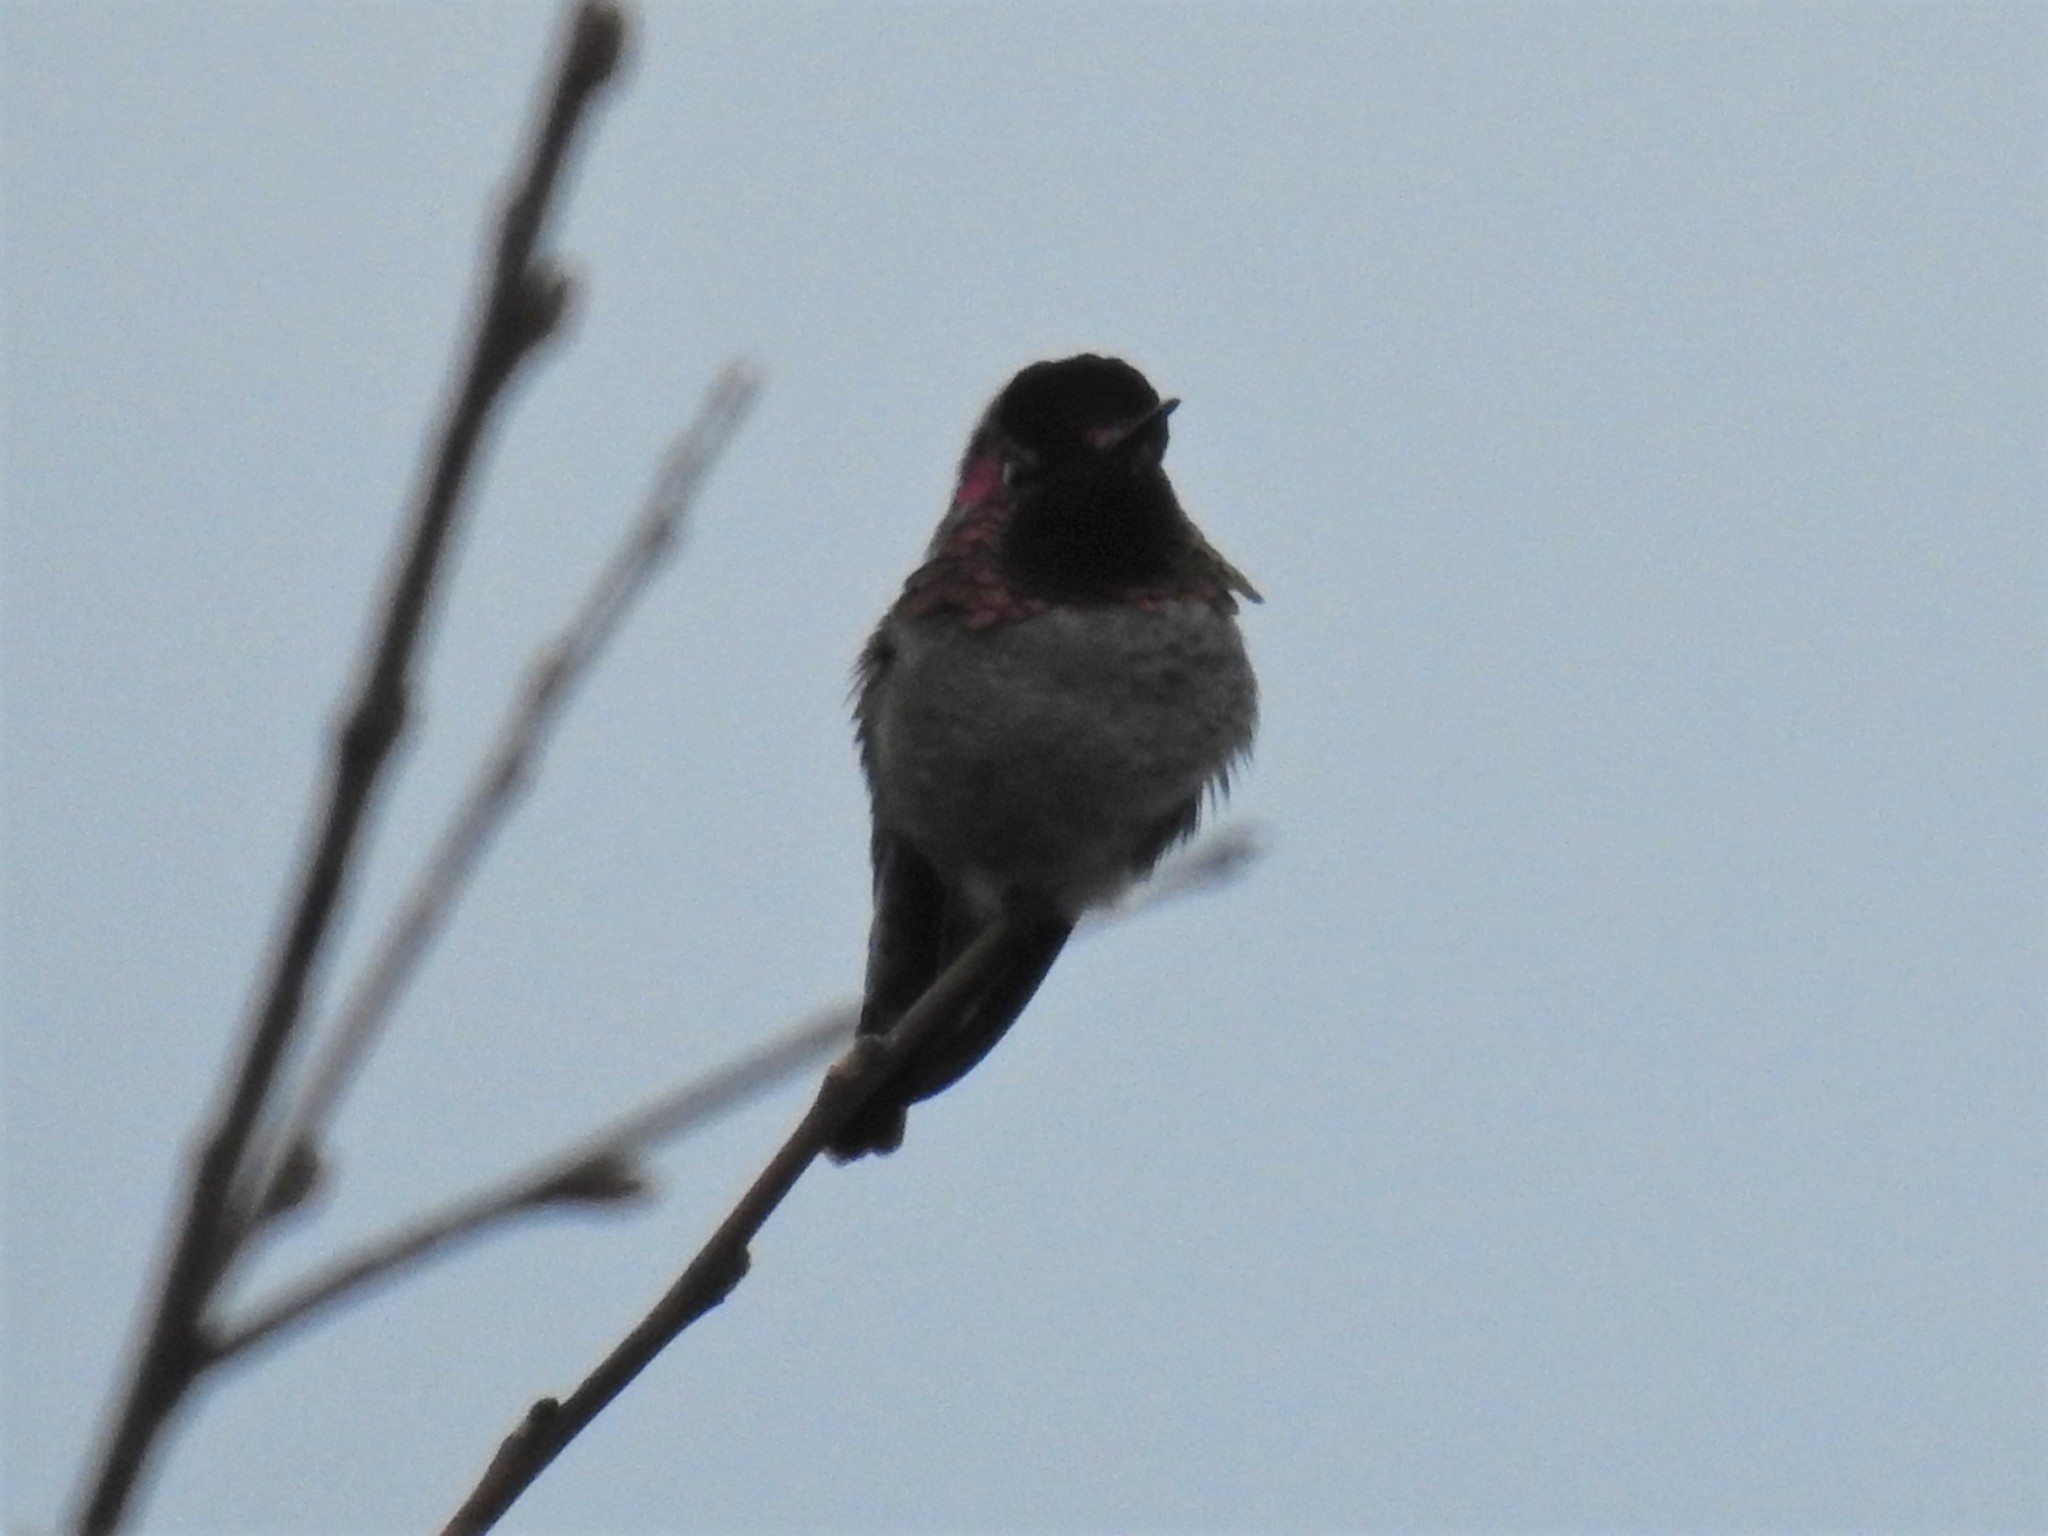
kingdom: Animalia
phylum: Chordata
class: Aves
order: Apodiformes
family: Trochilidae
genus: Calypte
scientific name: Calypte anna
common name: Anna's hummingbird
